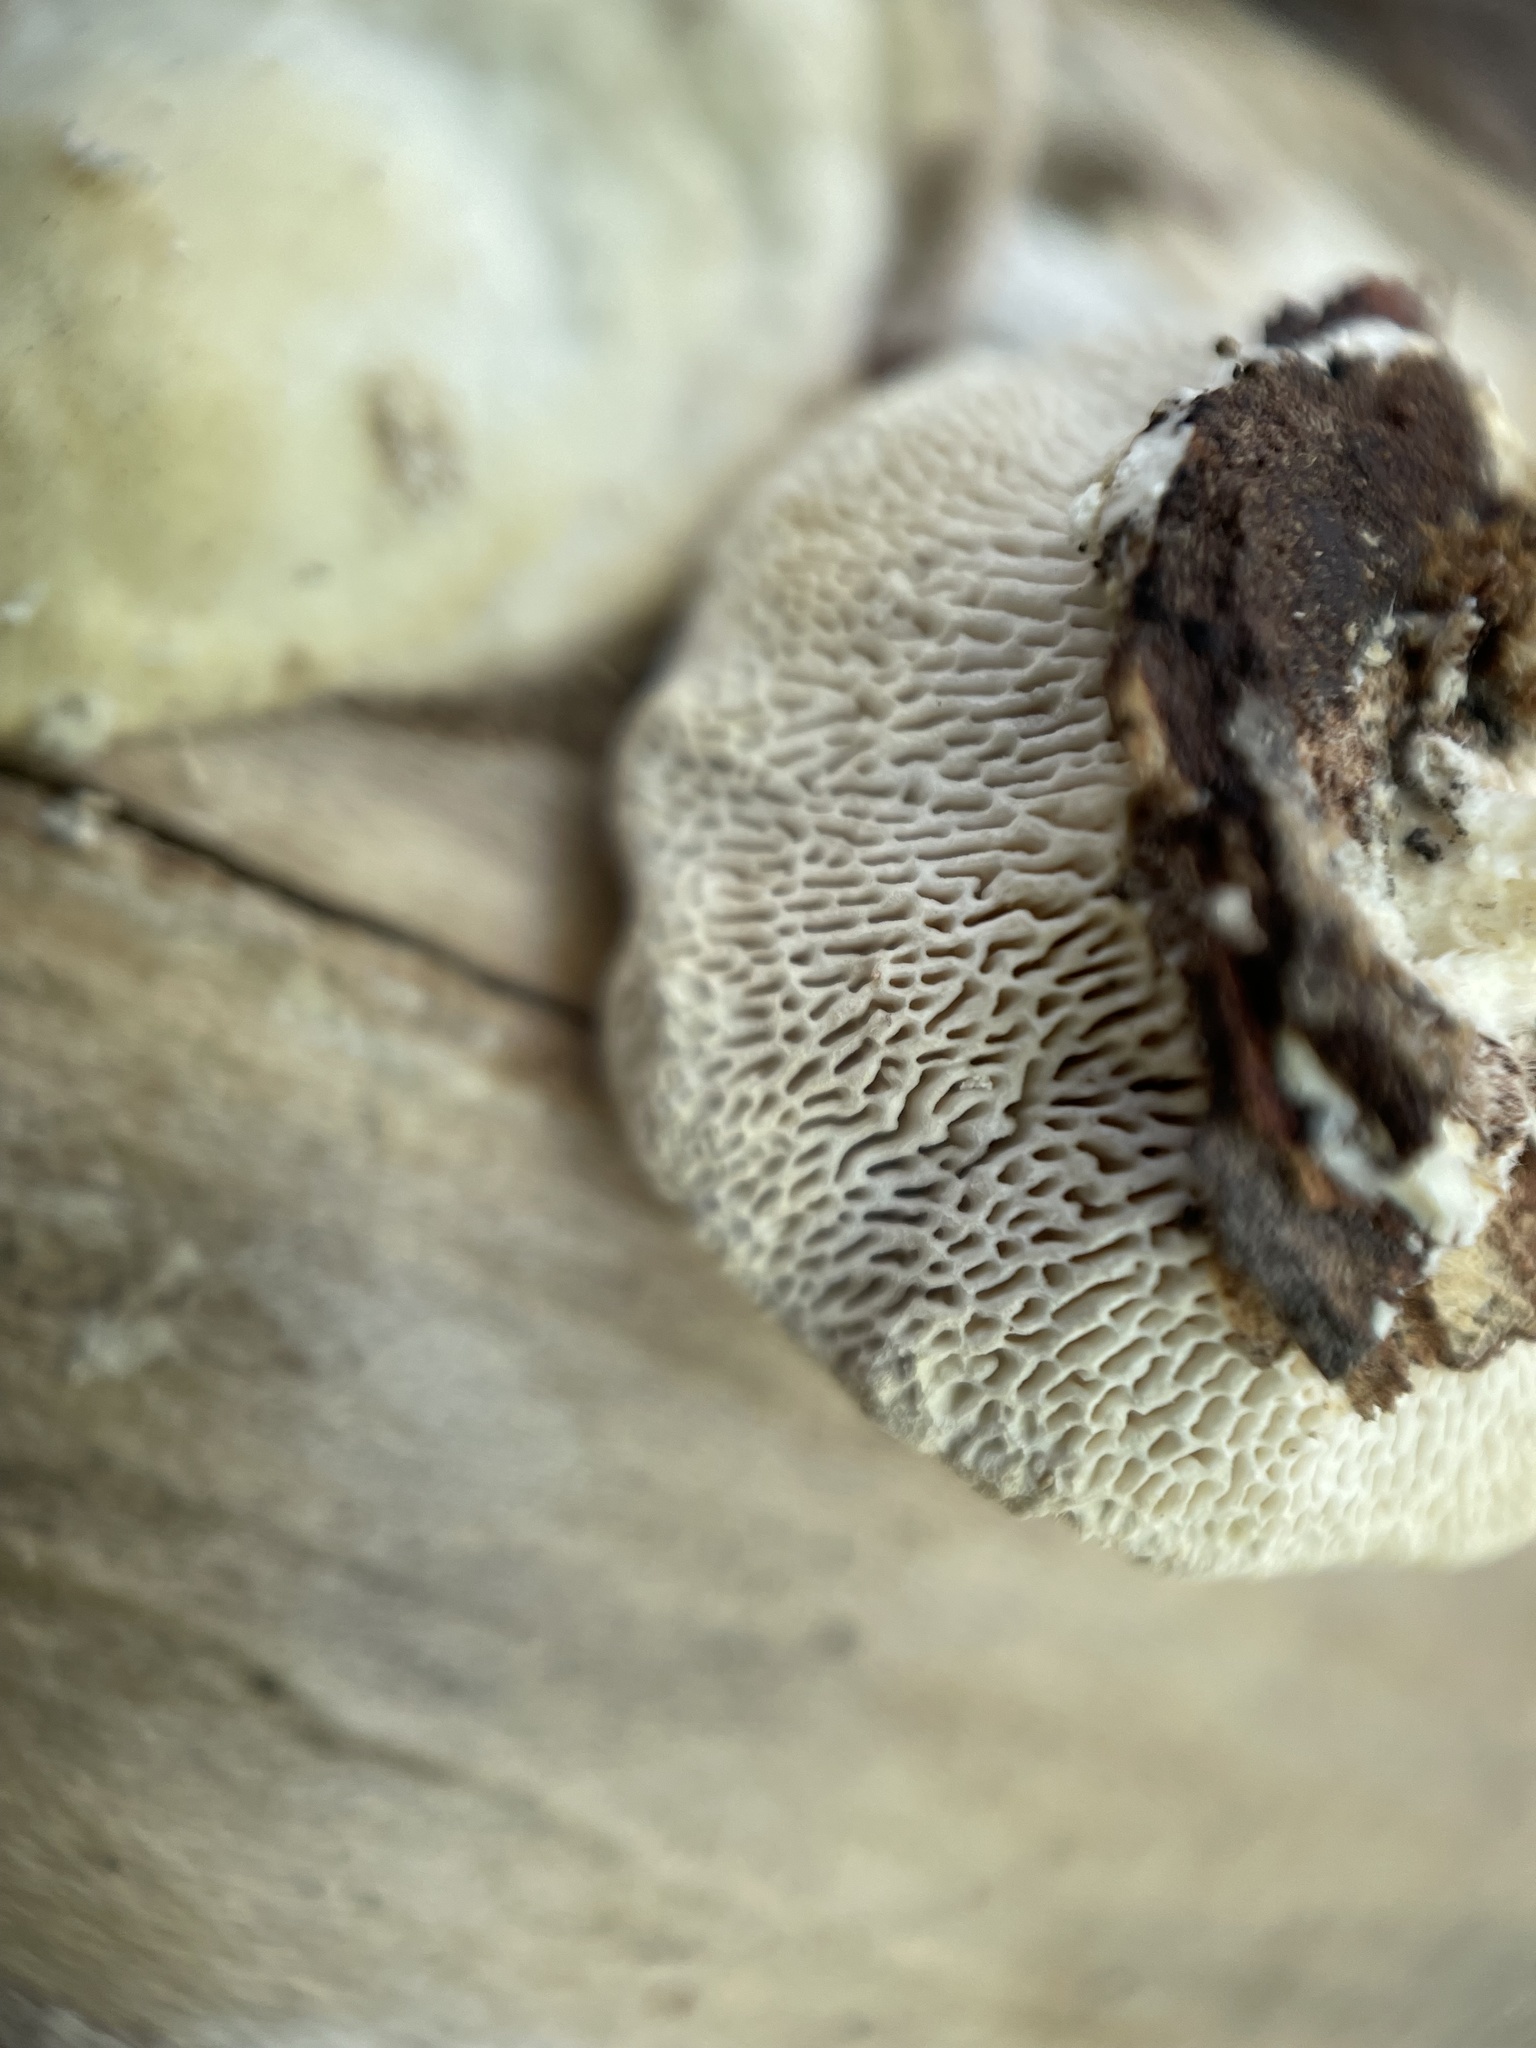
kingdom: Fungi
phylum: Basidiomycota
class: Agaricomycetes
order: Polyporales
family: Polyporaceae
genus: Trametes
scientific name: Trametes gibbosa
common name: Lumpy bracket
